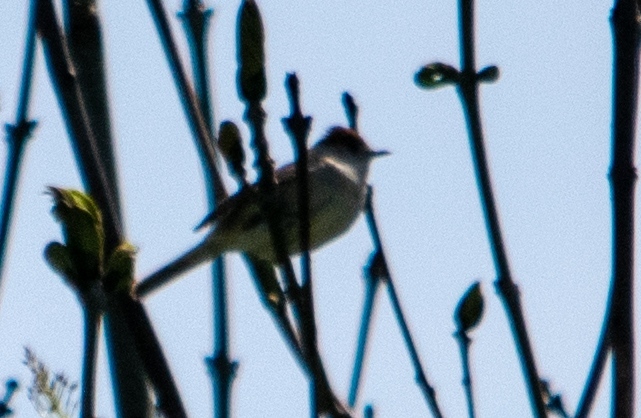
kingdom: Animalia
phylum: Chordata
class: Aves
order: Passeriformes
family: Sylviidae
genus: Sylvia
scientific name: Sylvia atricapilla
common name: Eurasian blackcap
